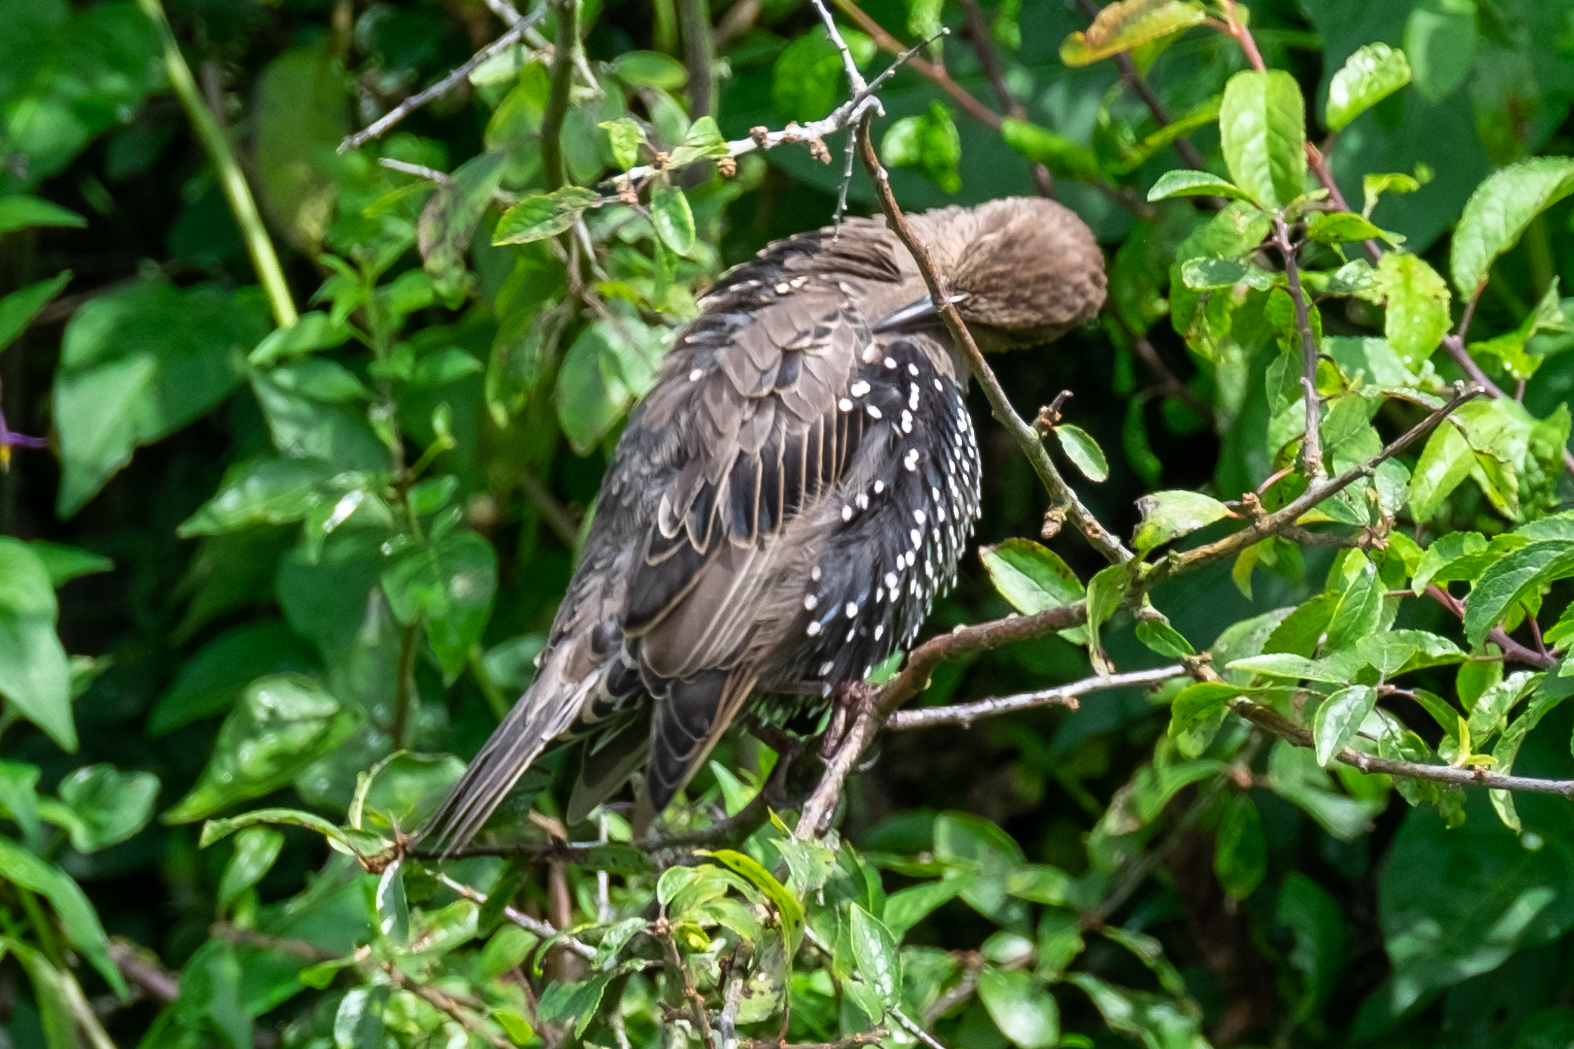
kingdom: Animalia
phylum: Chordata
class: Aves
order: Passeriformes
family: Sturnidae
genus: Sturnus
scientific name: Sturnus vulgaris
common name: Common starling
